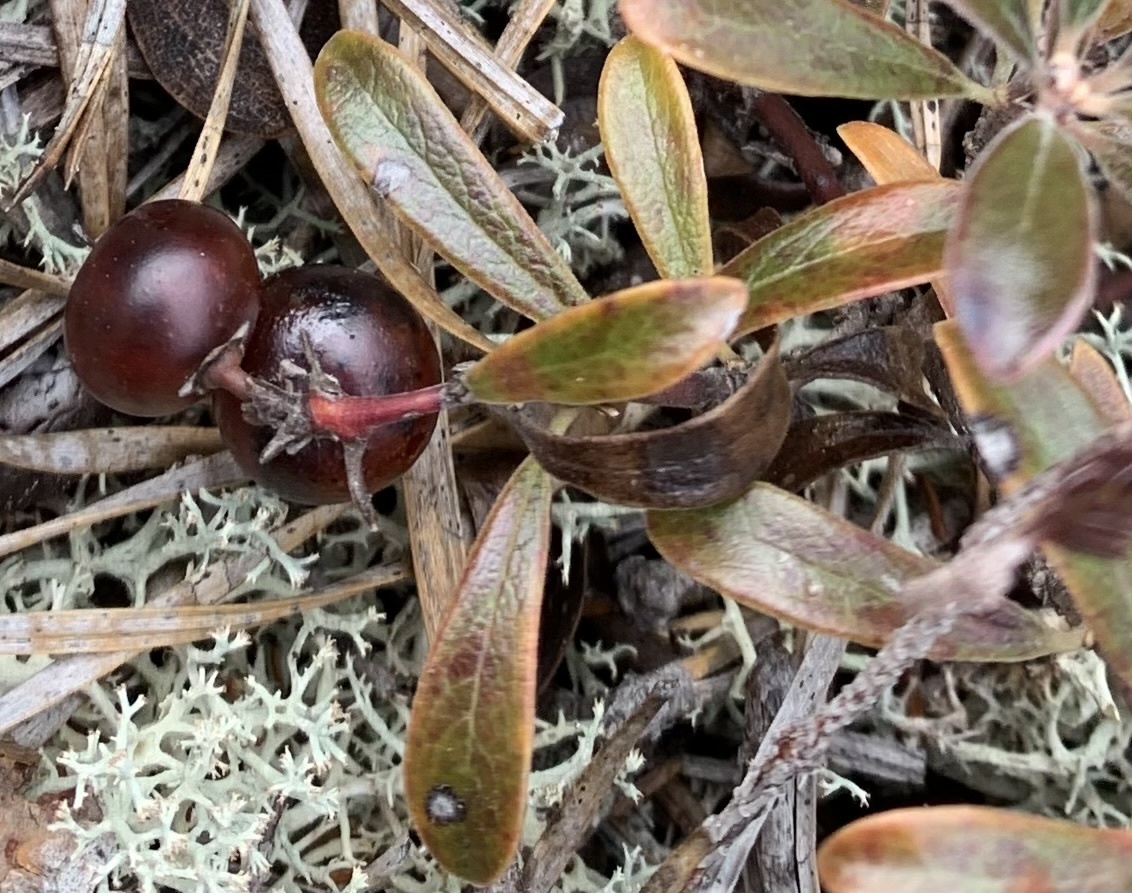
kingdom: Plantae
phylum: Tracheophyta
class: Magnoliopsida
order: Ericales
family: Ericaceae
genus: Arctostaphylos
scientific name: Arctostaphylos uva-ursi
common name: Bearberry
